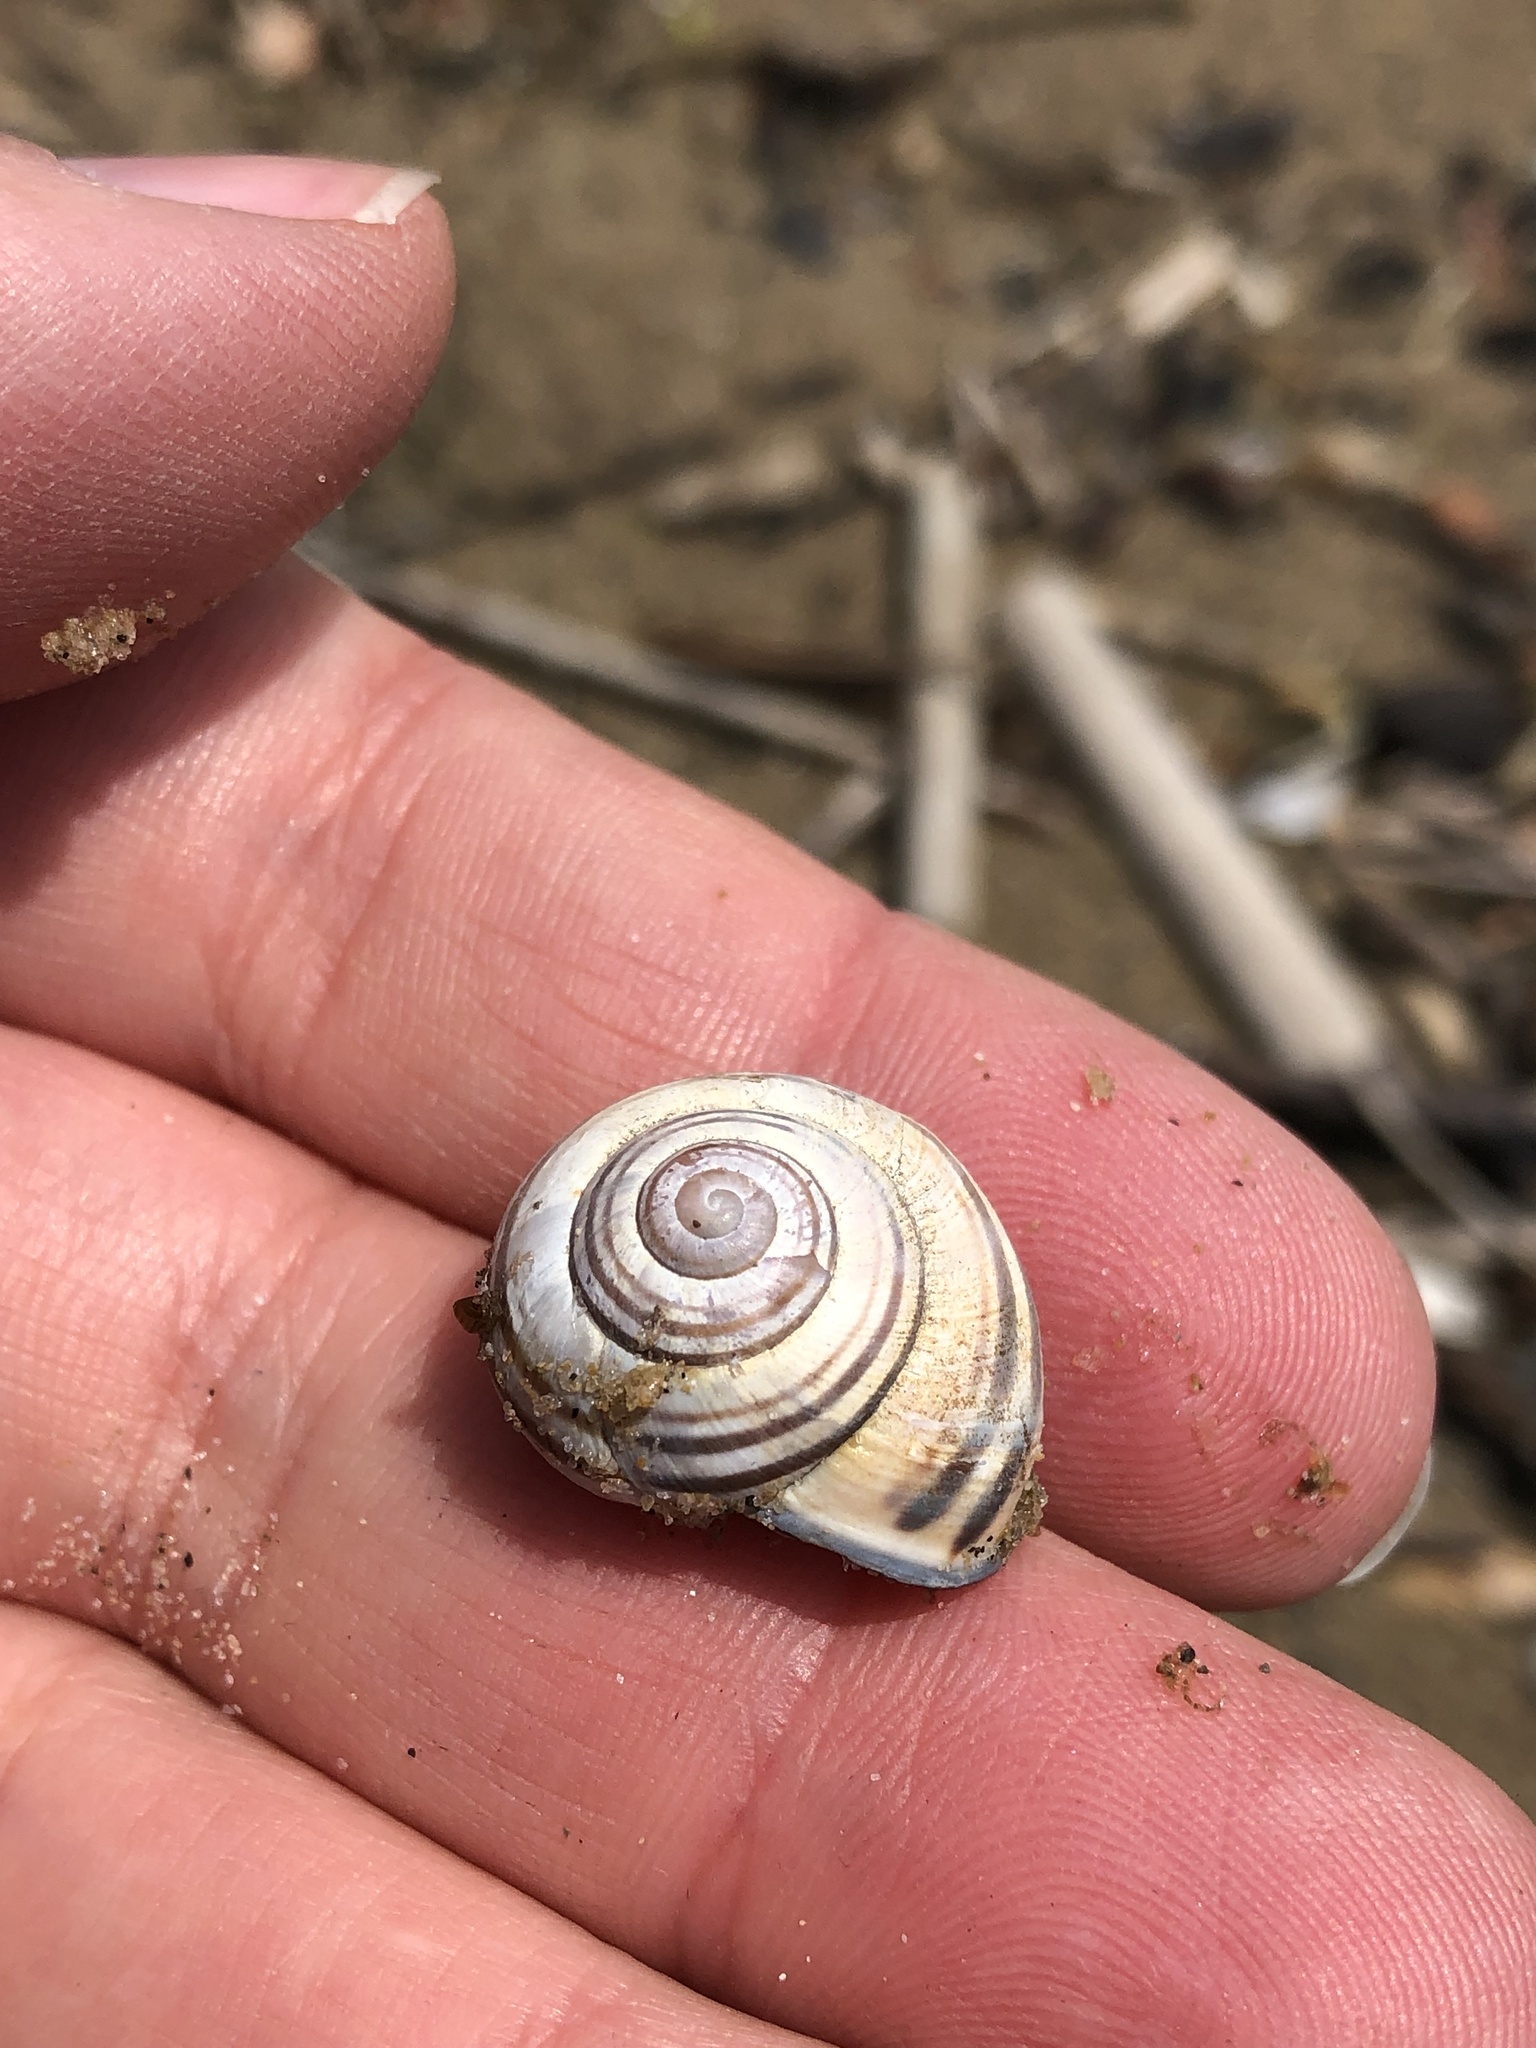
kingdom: Animalia
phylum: Mollusca
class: Gastropoda
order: Stylommatophora
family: Helicidae
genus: Cepaea
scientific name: Cepaea nemoralis
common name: Grovesnail
